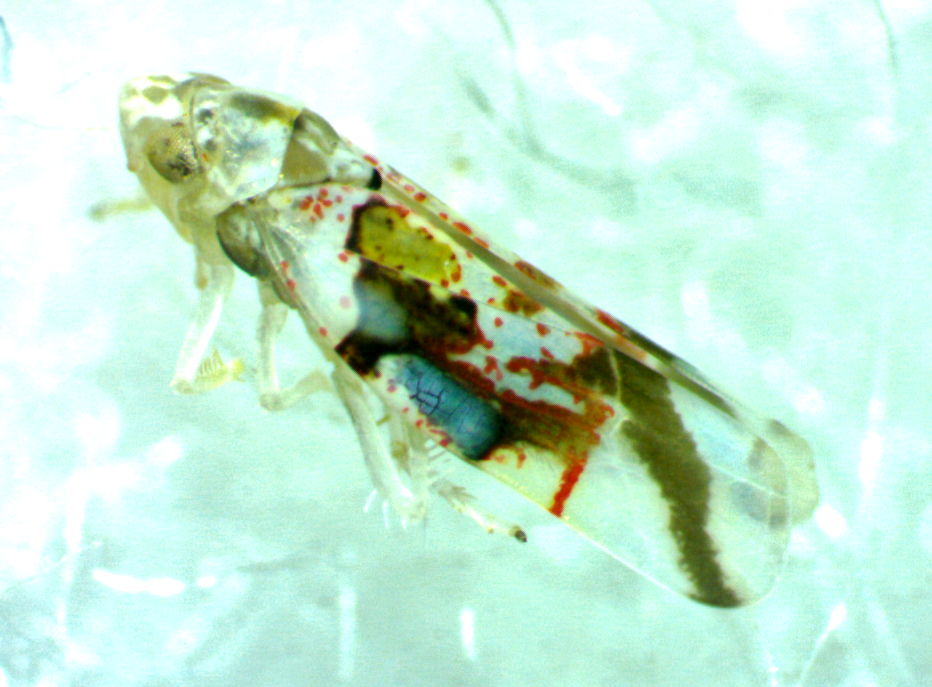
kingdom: Animalia
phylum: Arthropoda
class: Insecta
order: Hemiptera
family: Cicadellidae
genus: Hymetta
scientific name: Hymetta kansasensis
